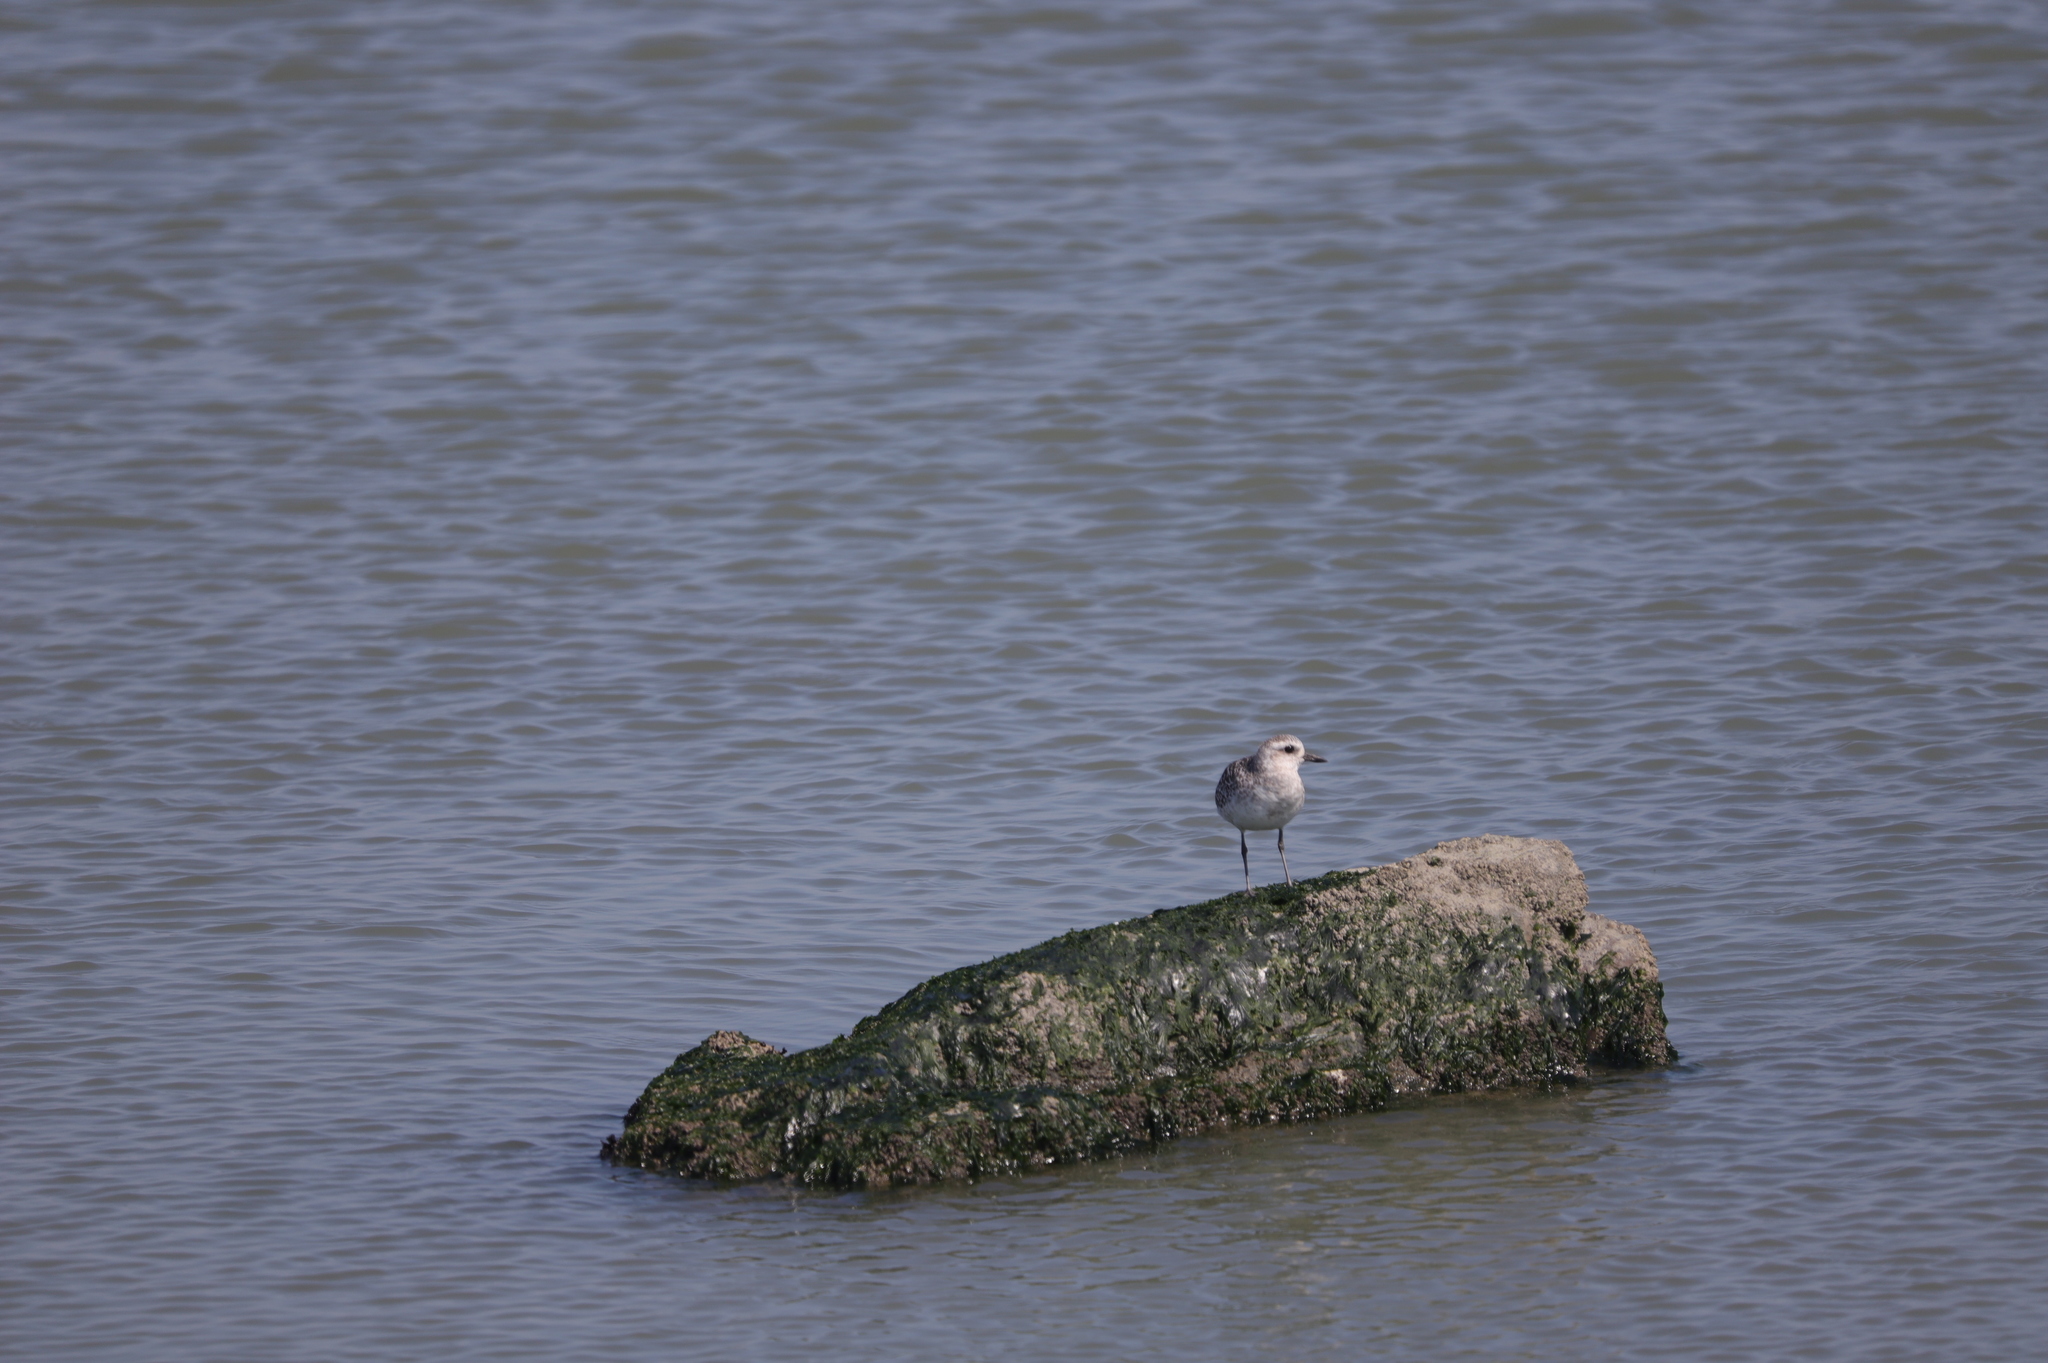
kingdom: Animalia
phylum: Chordata
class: Aves
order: Charadriiformes
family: Charadriidae
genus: Pluvialis
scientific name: Pluvialis squatarola
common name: Grey plover
